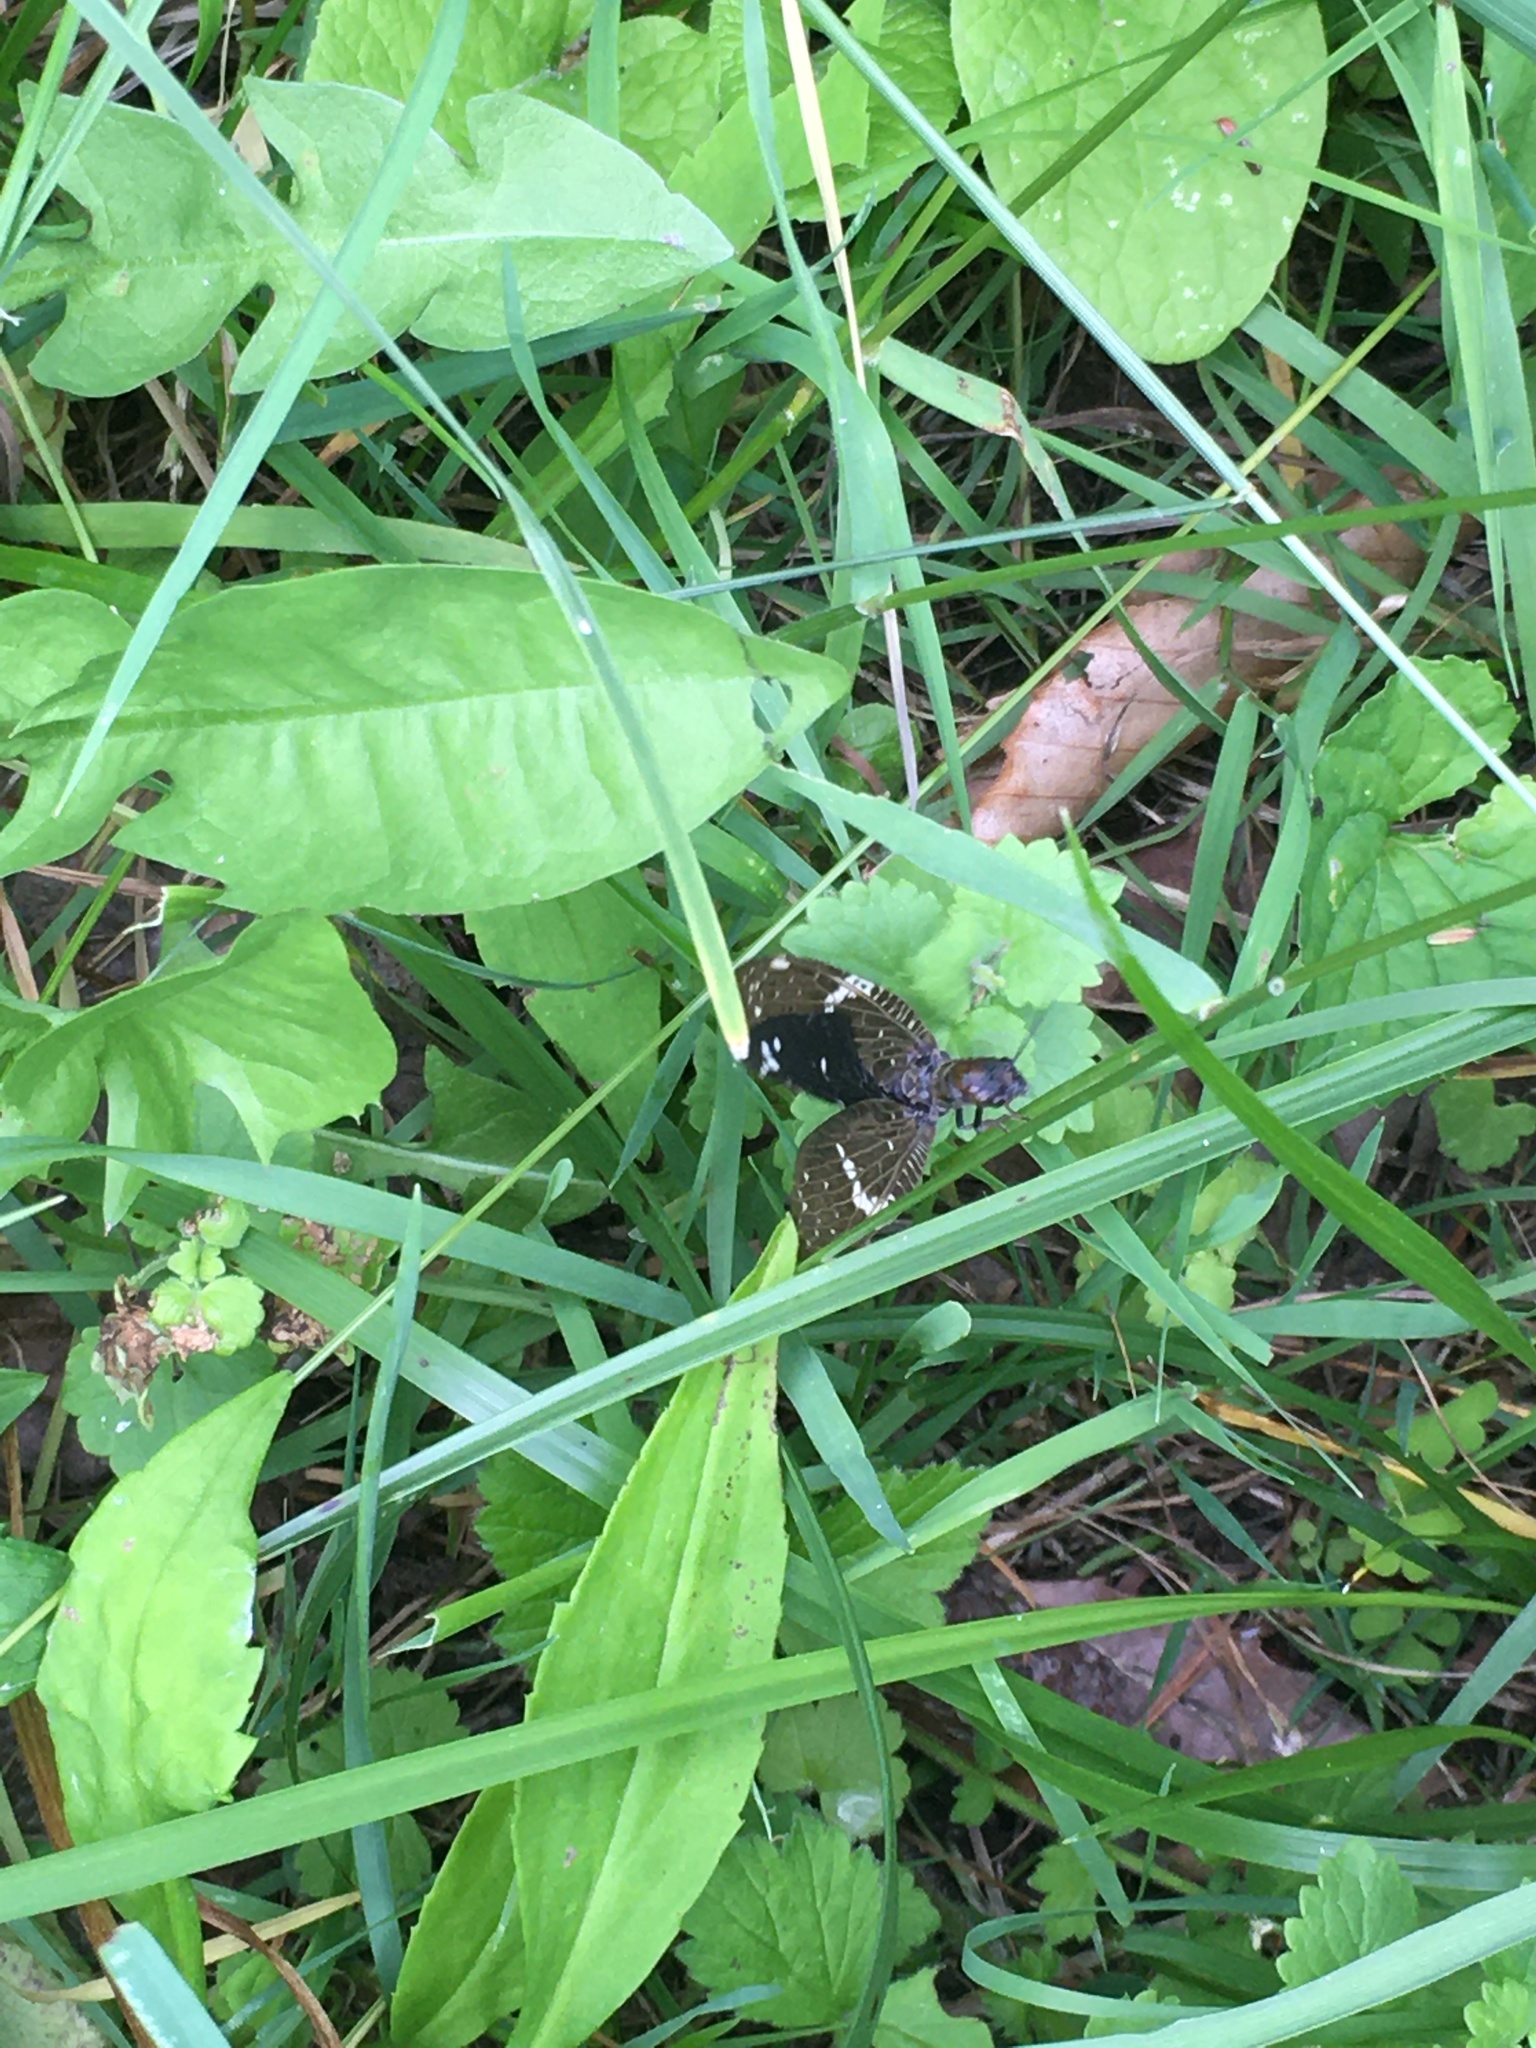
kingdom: Animalia
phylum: Arthropoda
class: Insecta
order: Megaloptera
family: Corydalidae
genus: Nigronia
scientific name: Nigronia serricornis
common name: Serrate dark fishfly
